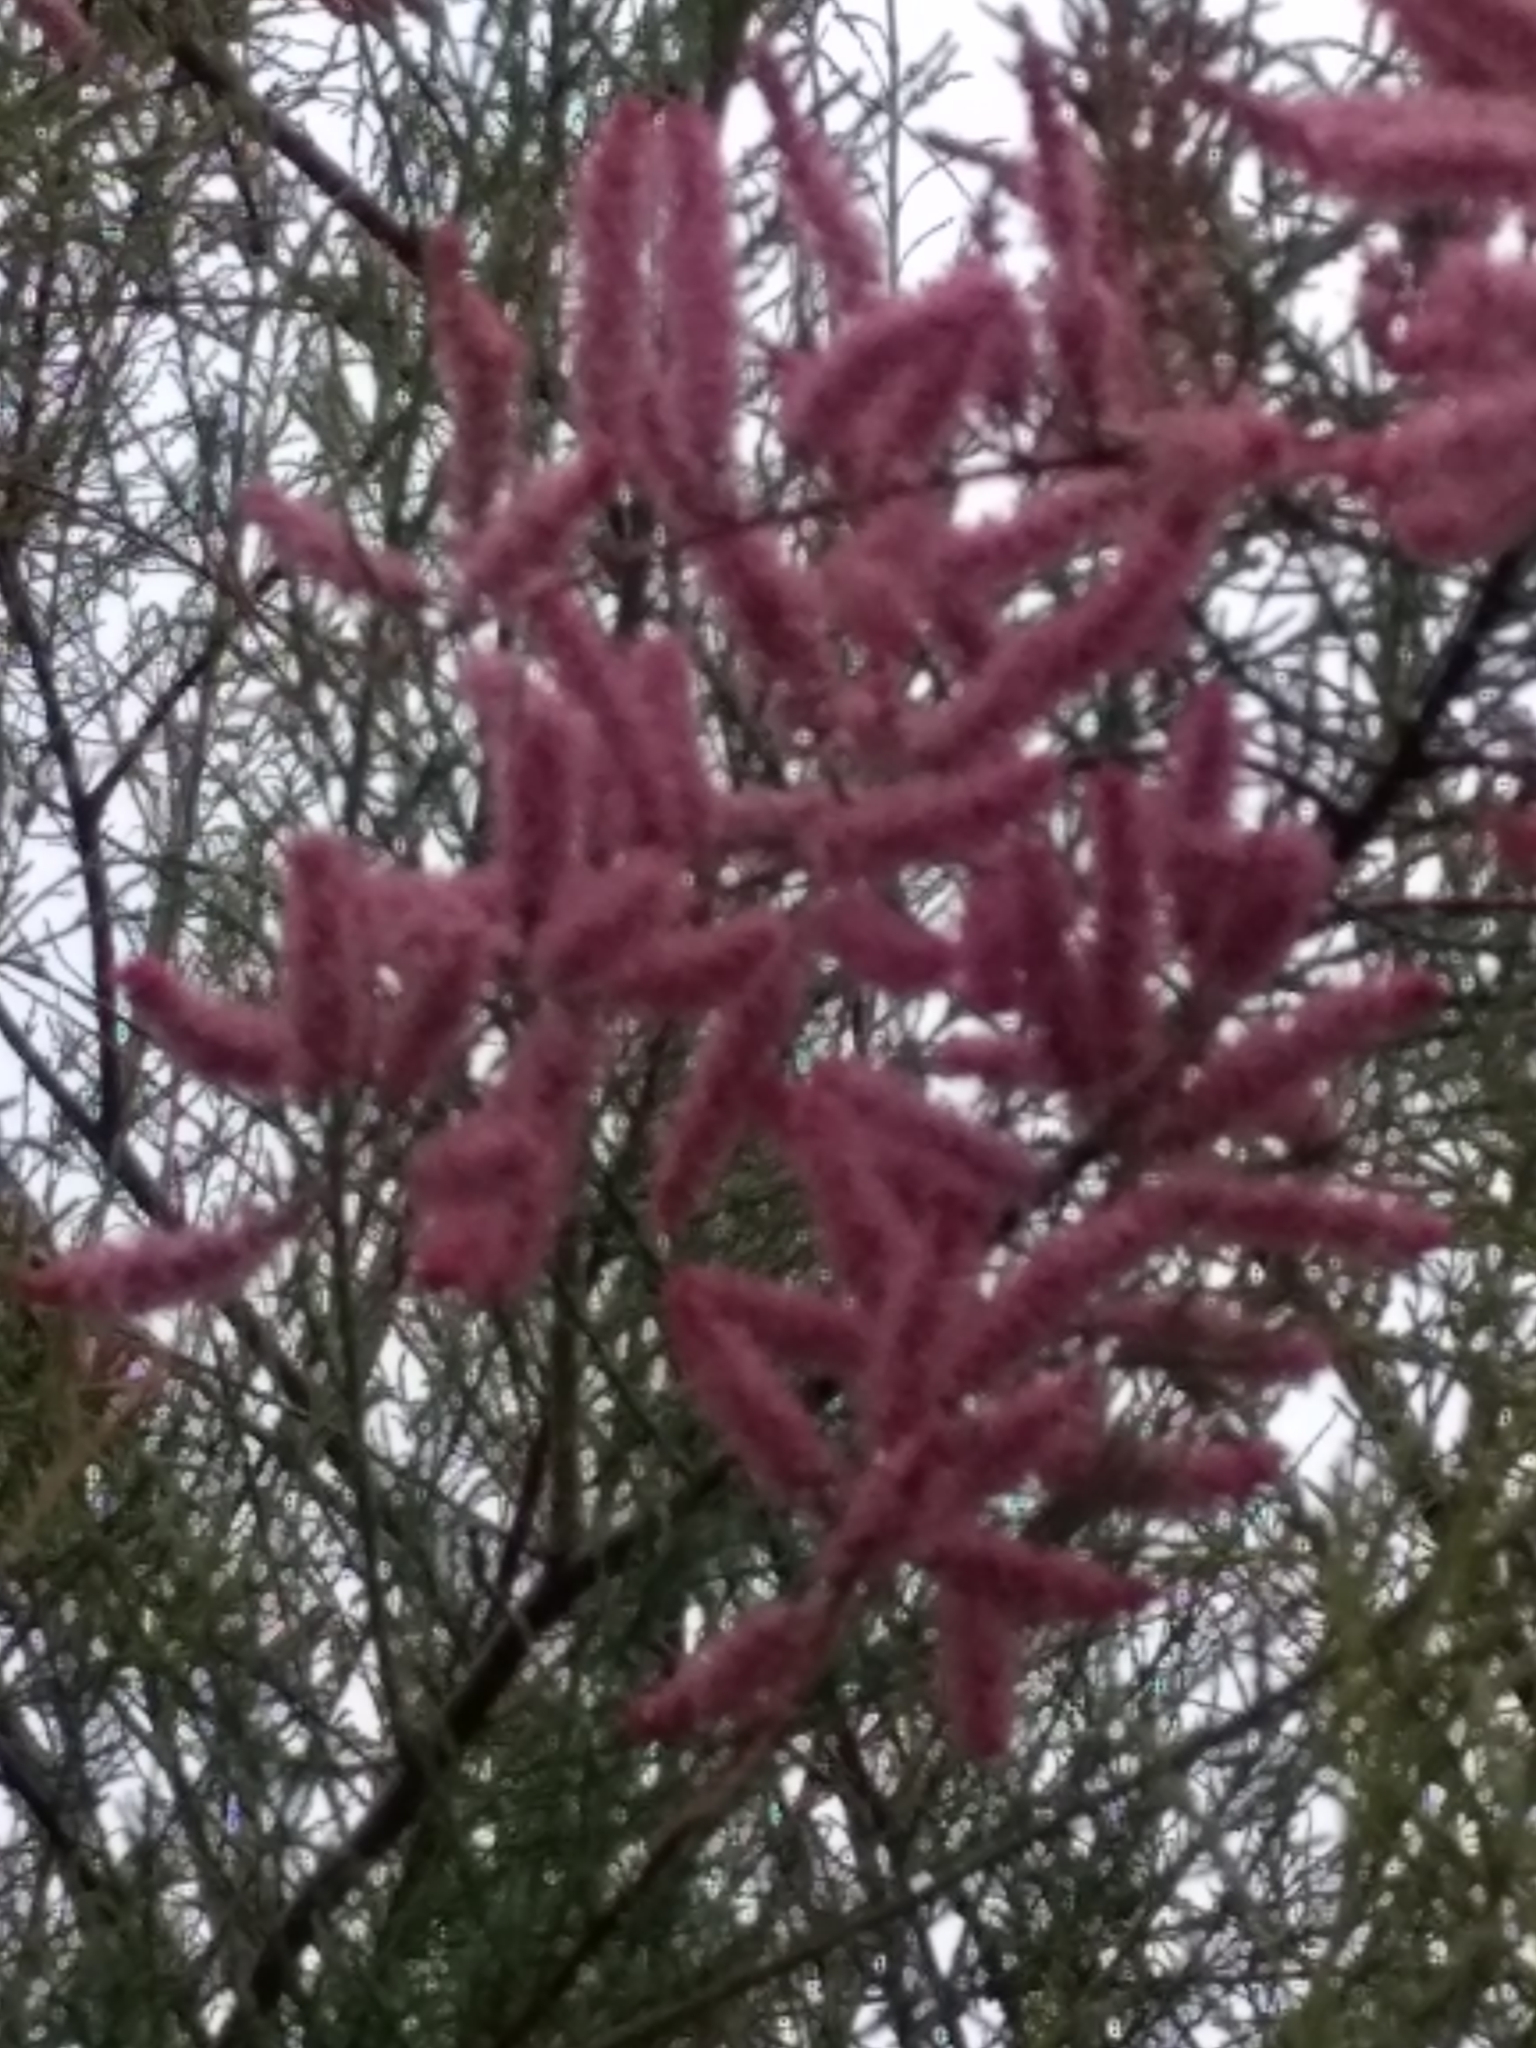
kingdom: Plantae
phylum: Tracheophyta
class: Magnoliopsida
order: Caryophyllales
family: Tamaricaceae
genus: Tamarix
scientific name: Tamarix
